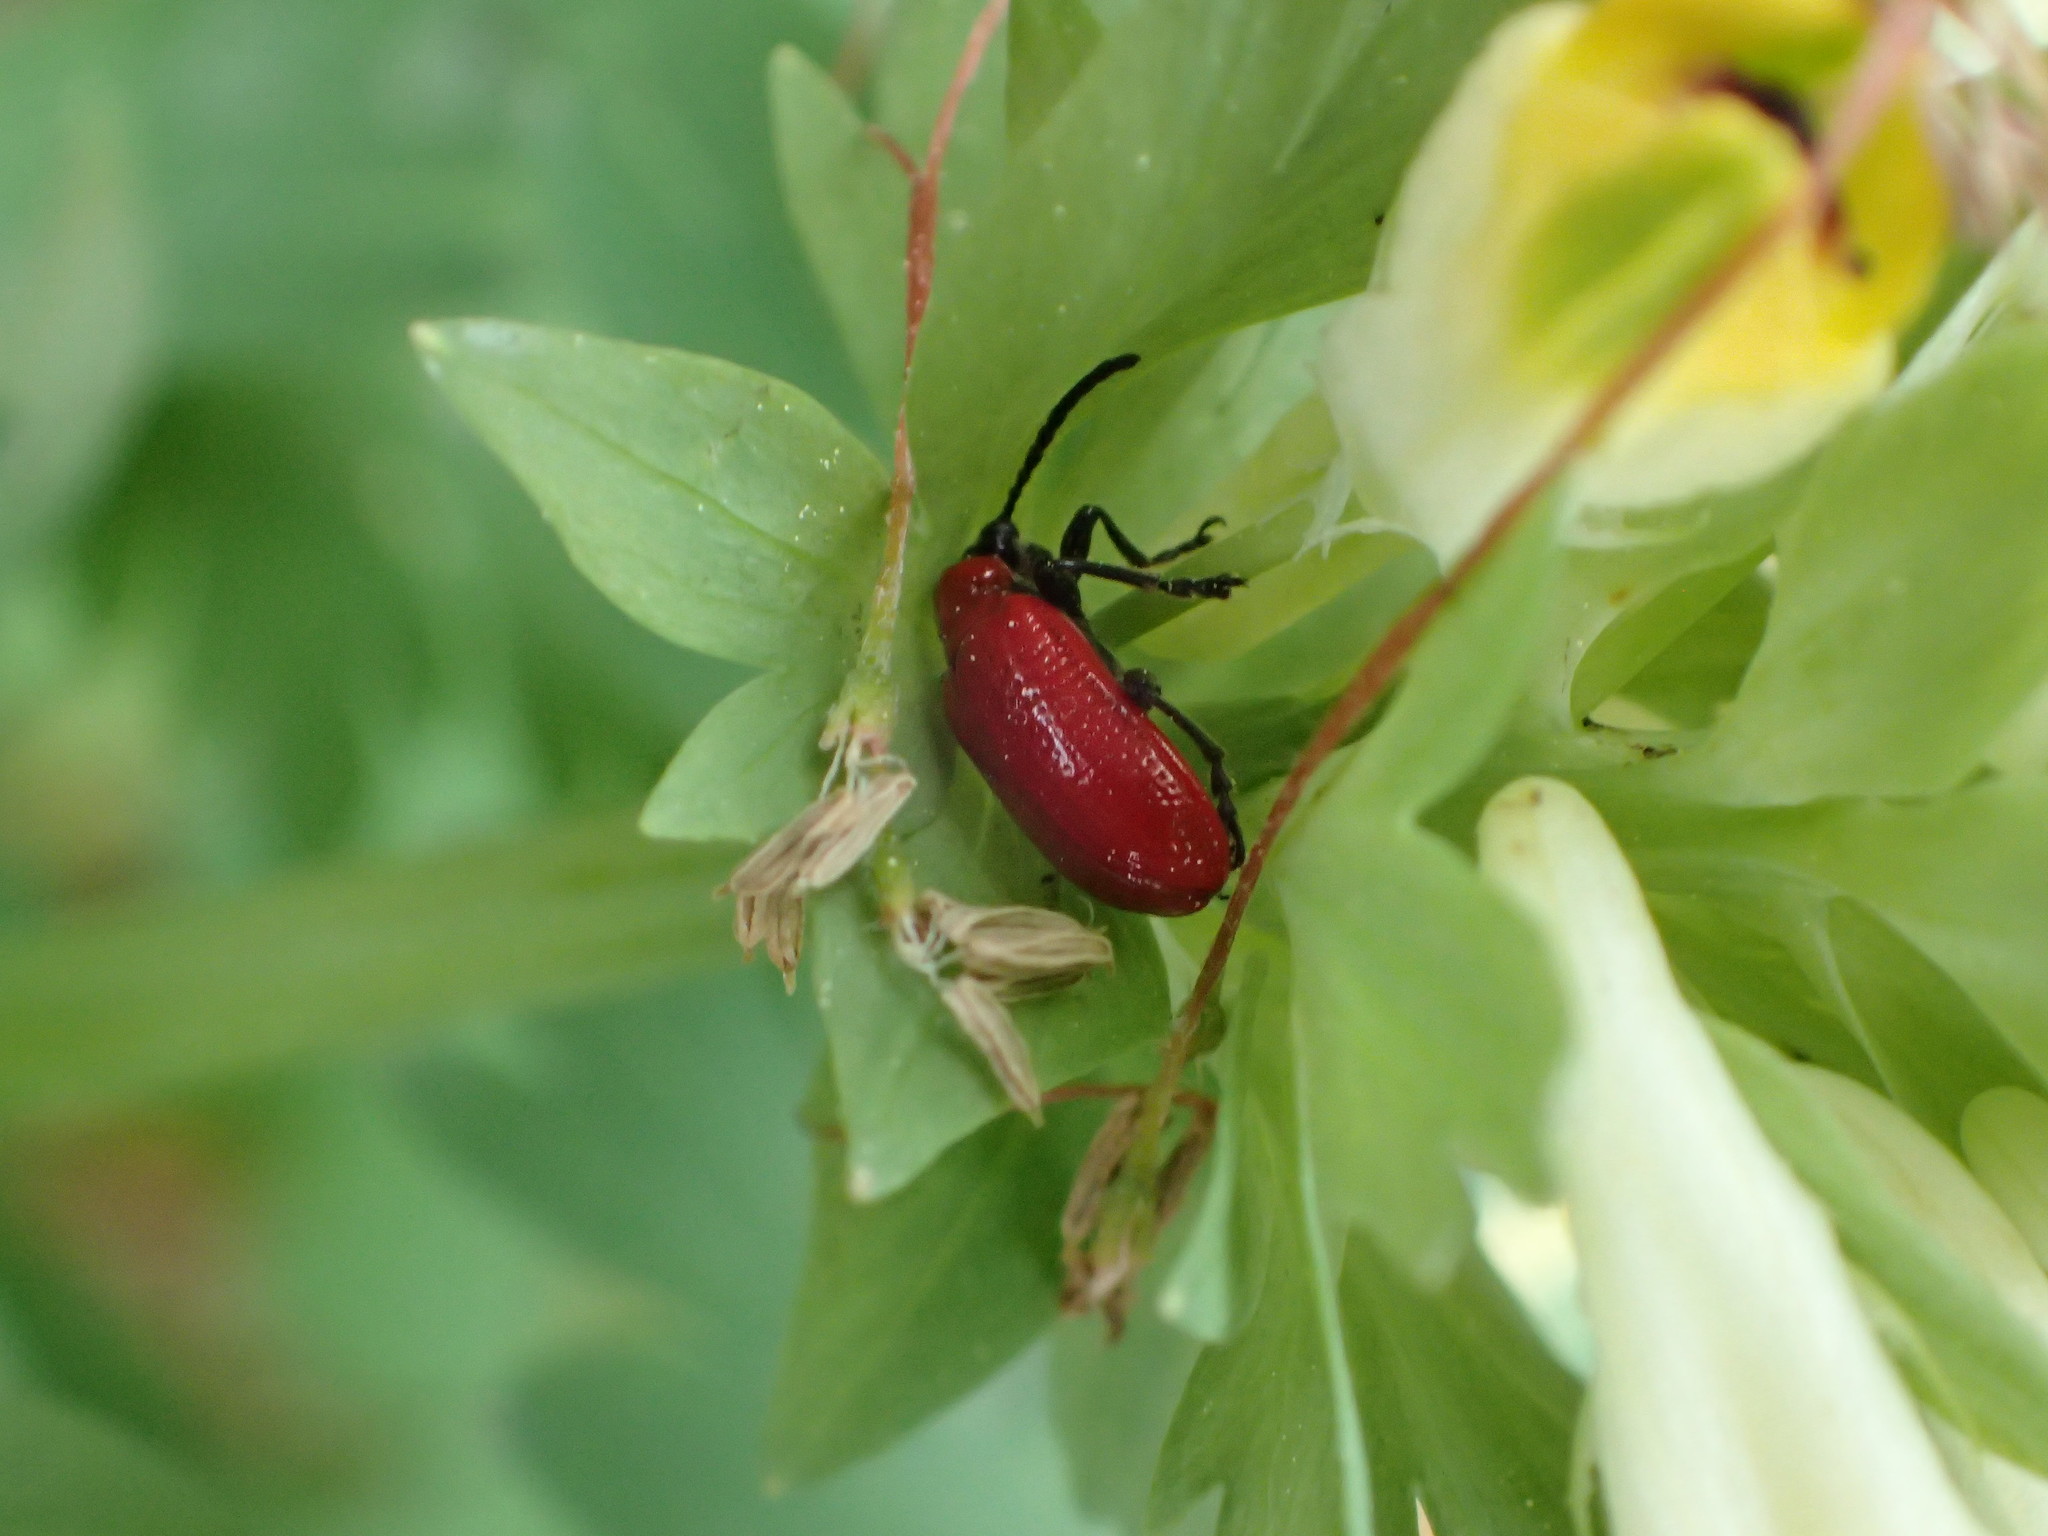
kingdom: Animalia
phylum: Arthropoda
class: Insecta
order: Coleoptera
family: Chrysomelidae
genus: Lilioceris
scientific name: Lilioceris lilii
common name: Lily beetle
